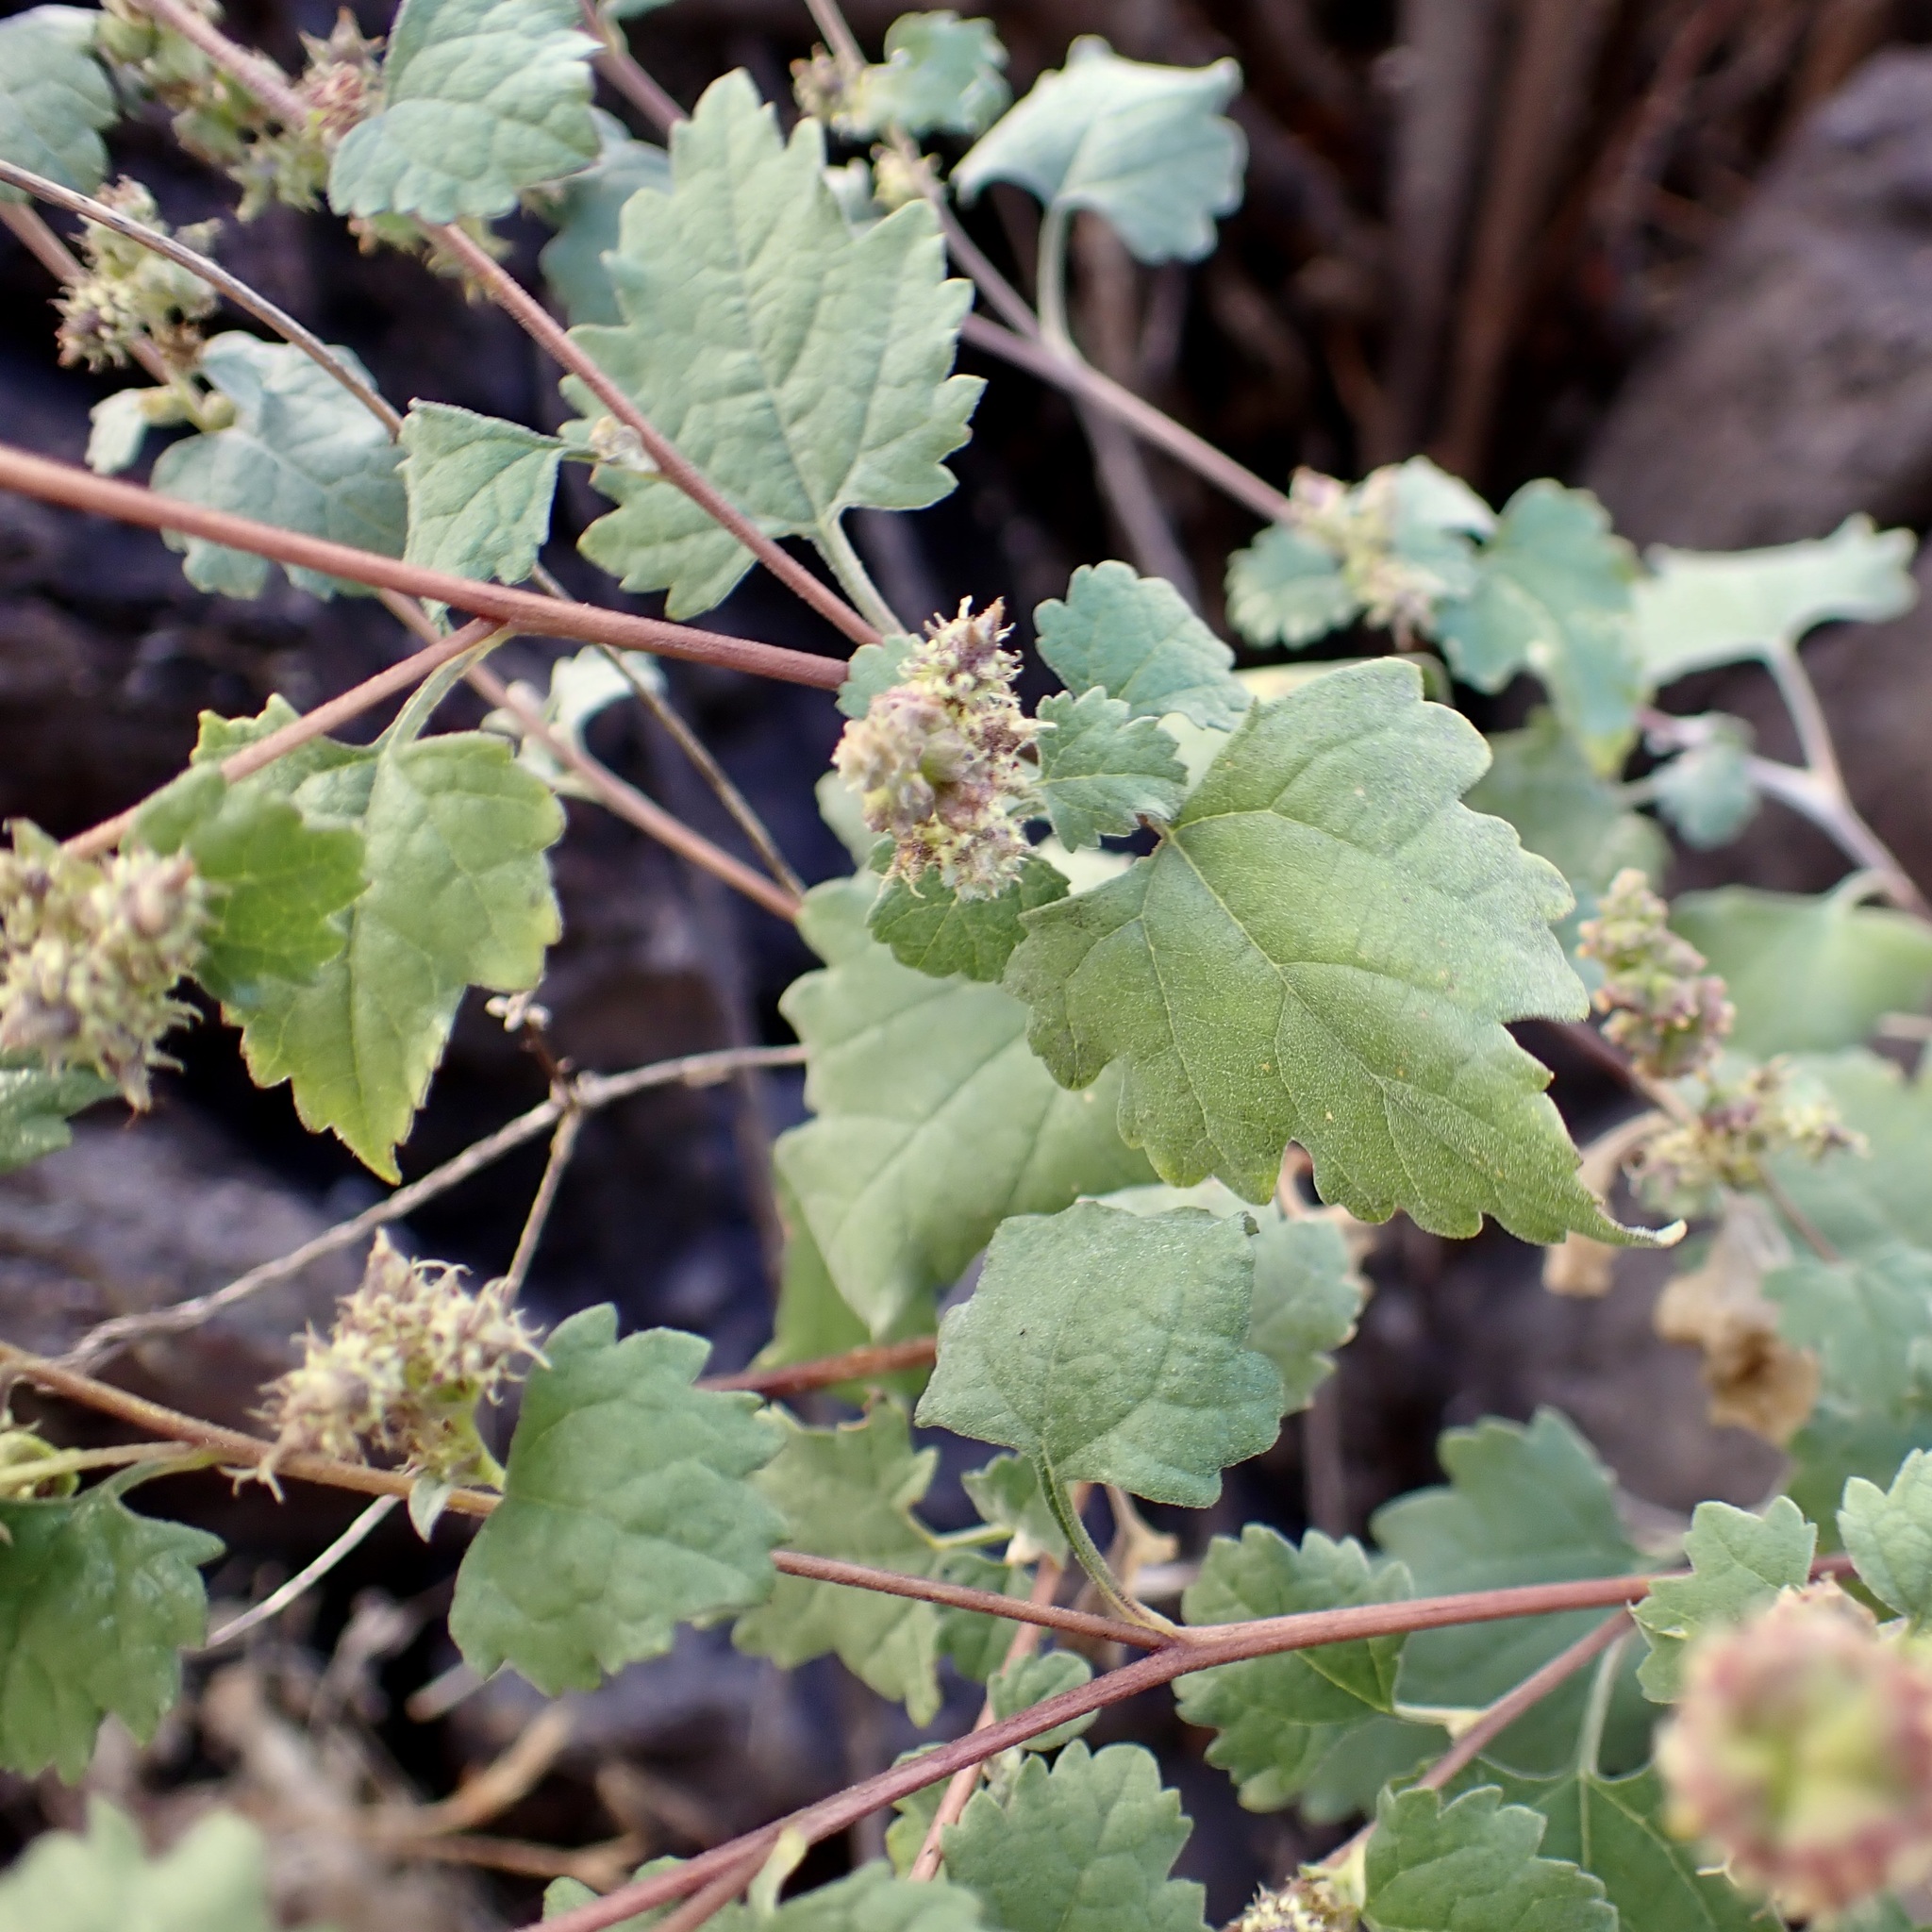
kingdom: Plantae
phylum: Tracheophyta
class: Magnoliopsida
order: Asterales
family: Asteraceae
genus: Ambrosia
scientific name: Ambrosia cordifolia
